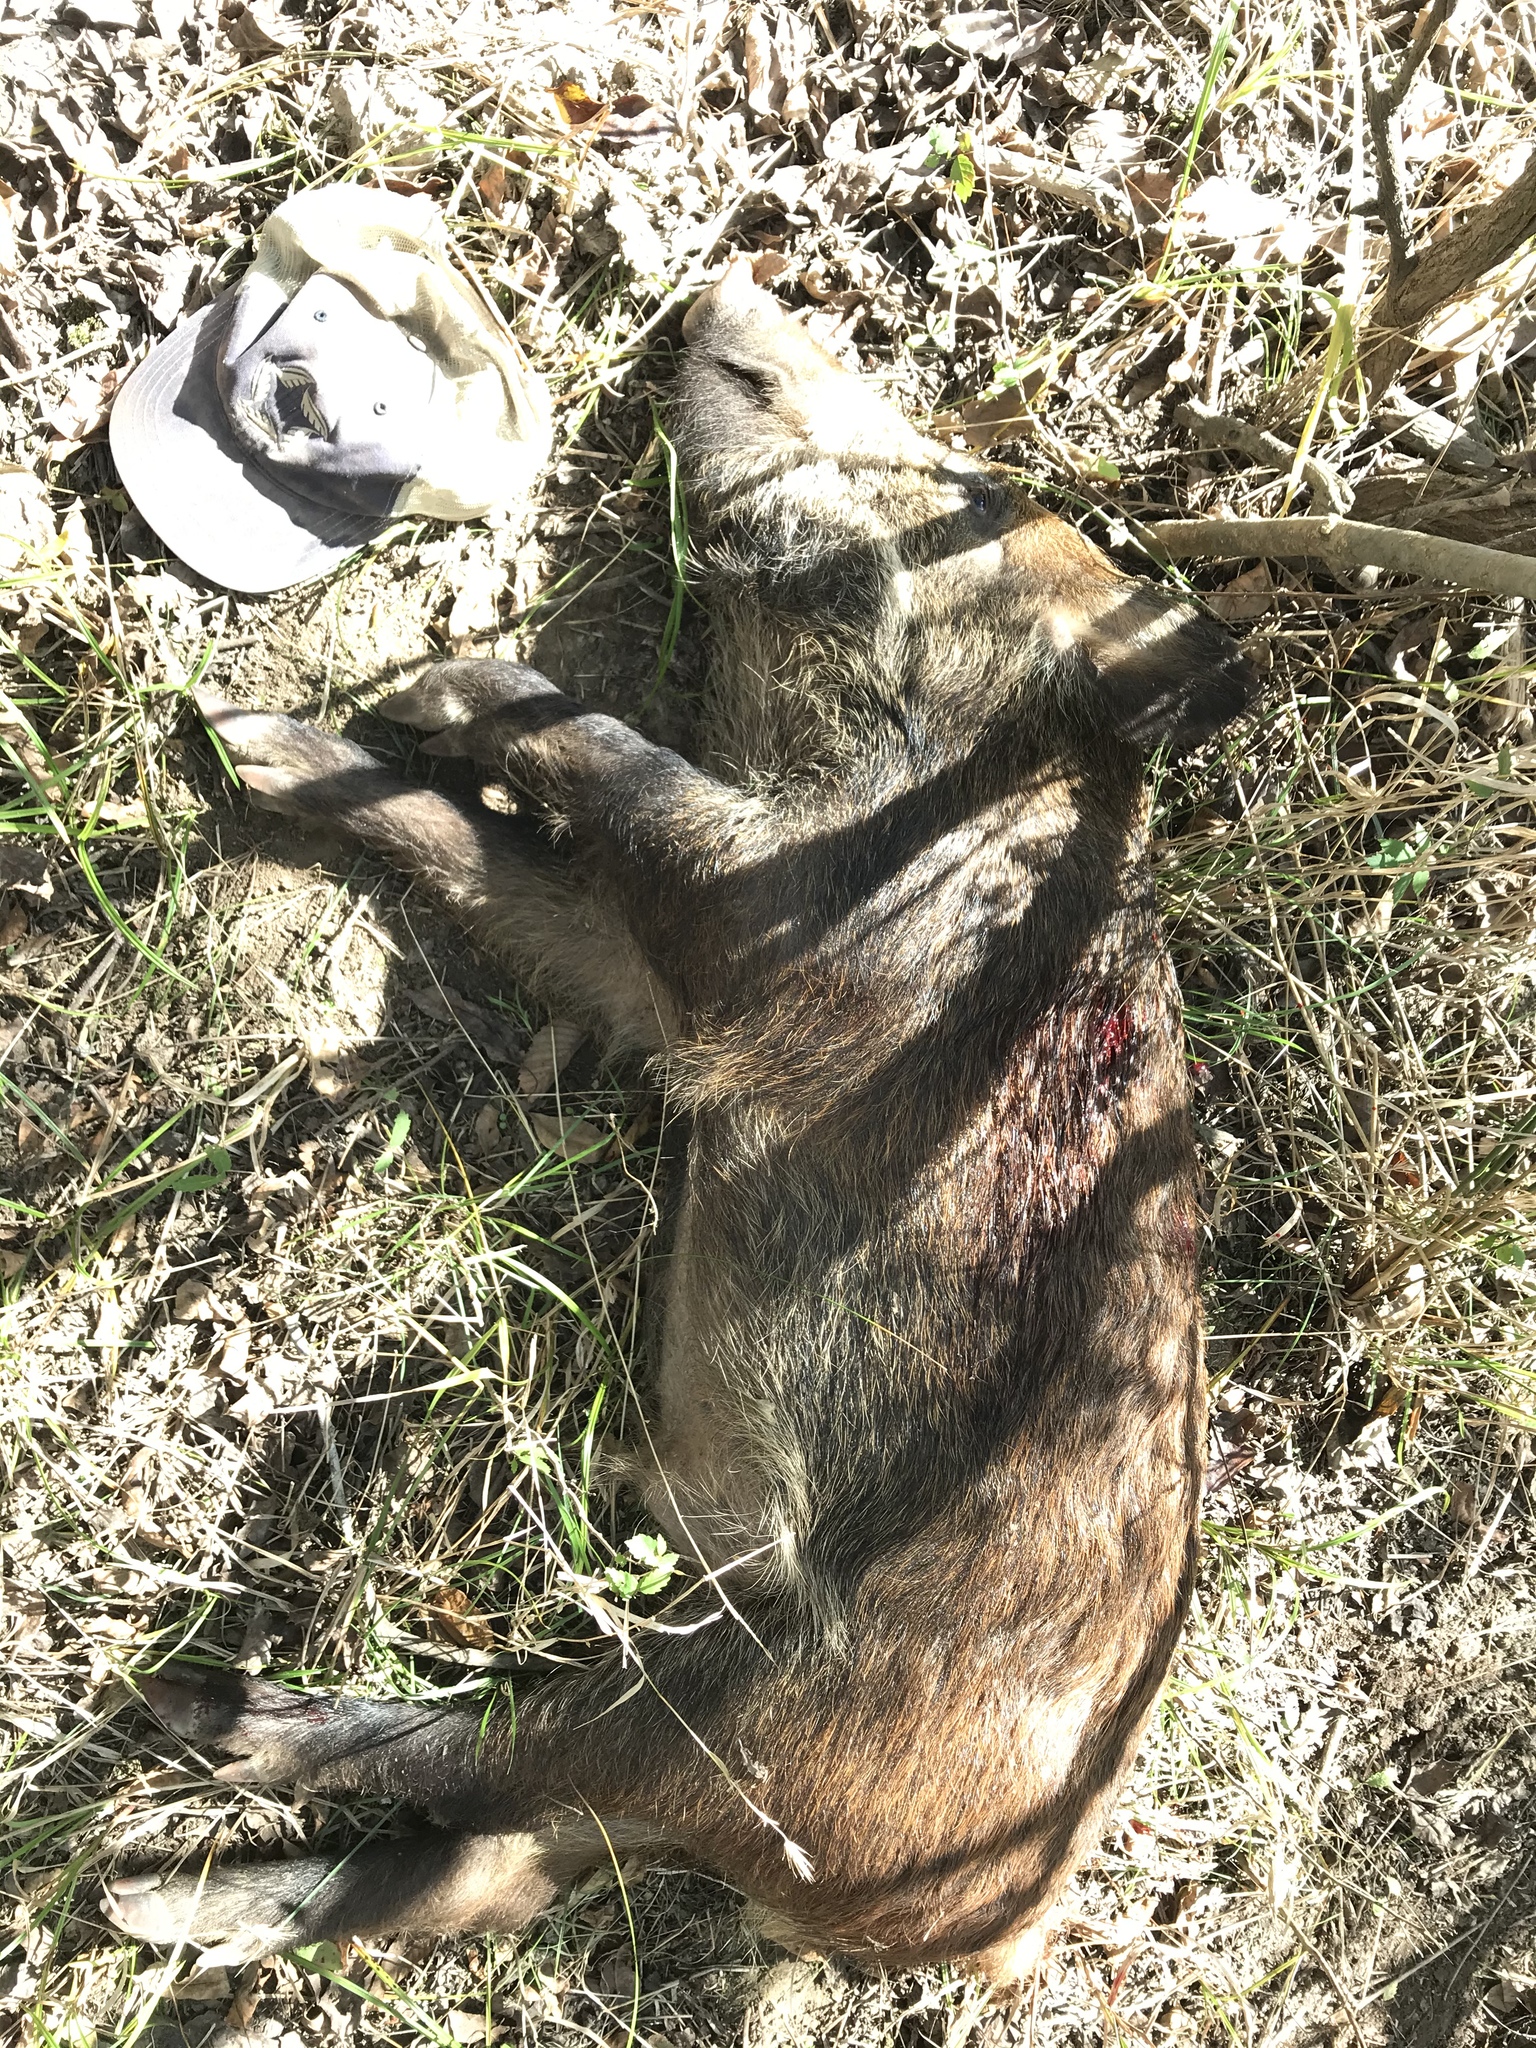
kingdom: Animalia
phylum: Chordata
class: Mammalia
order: Artiodactyla
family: Suidae
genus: Sus
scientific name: Sus scrofa
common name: Wild boar
